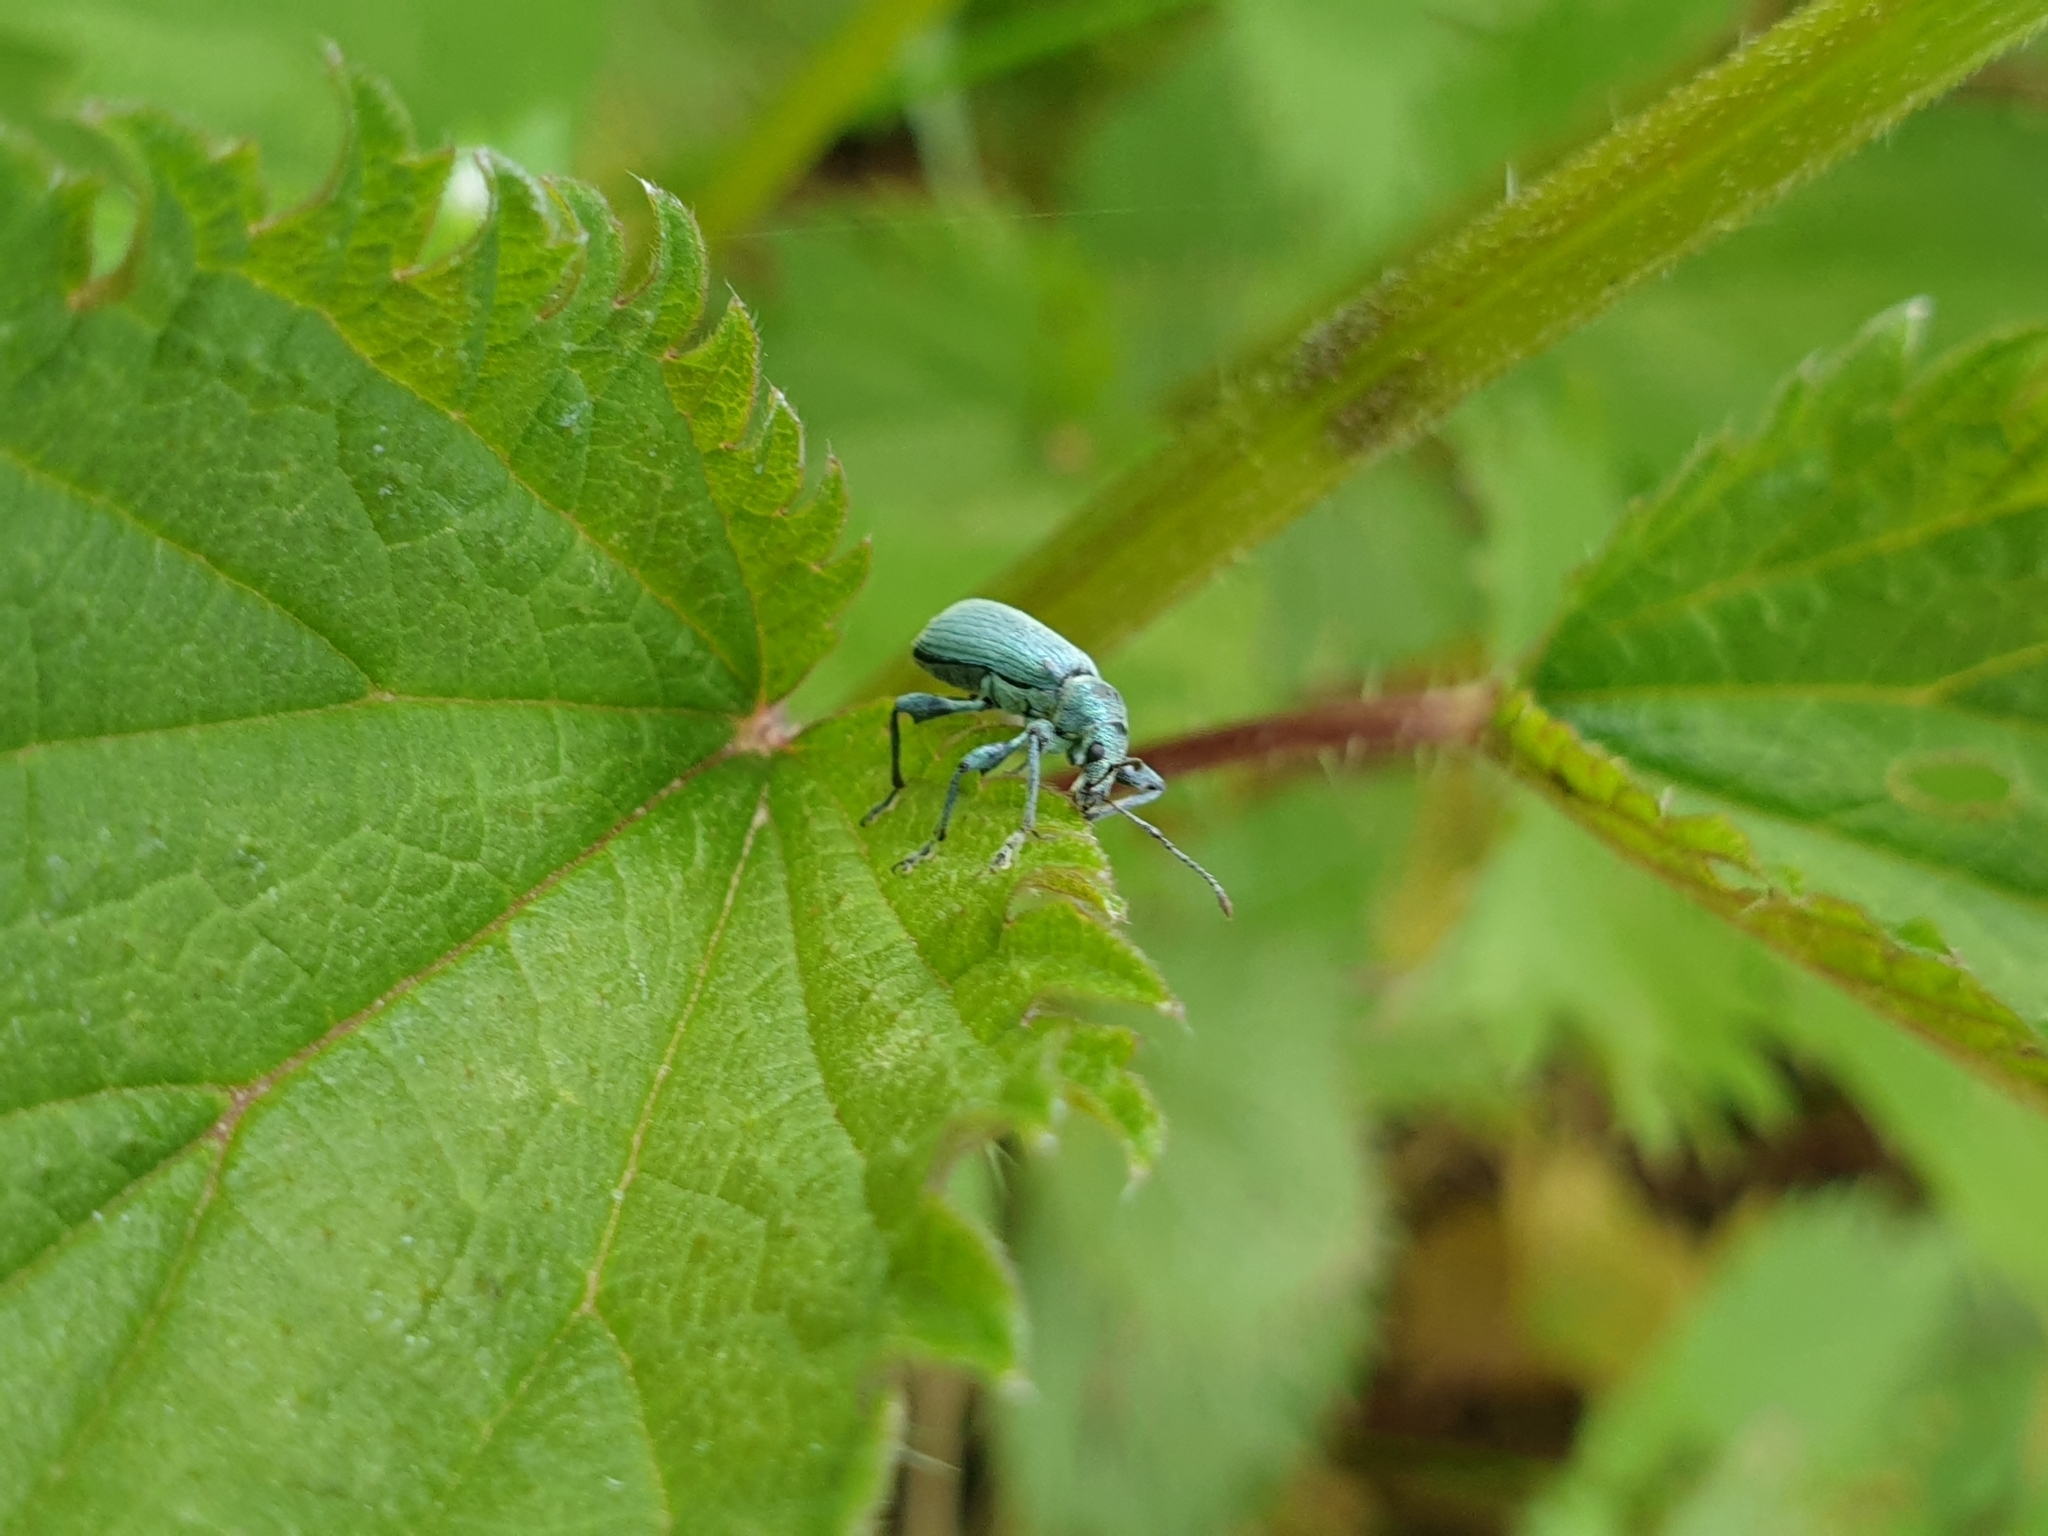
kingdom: Animalia
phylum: Arthropoda
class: Insecta
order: Coleoptera
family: Curculionidae
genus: Phyllobius
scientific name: Phyllobius pomaceus
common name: Green nettle weevil
